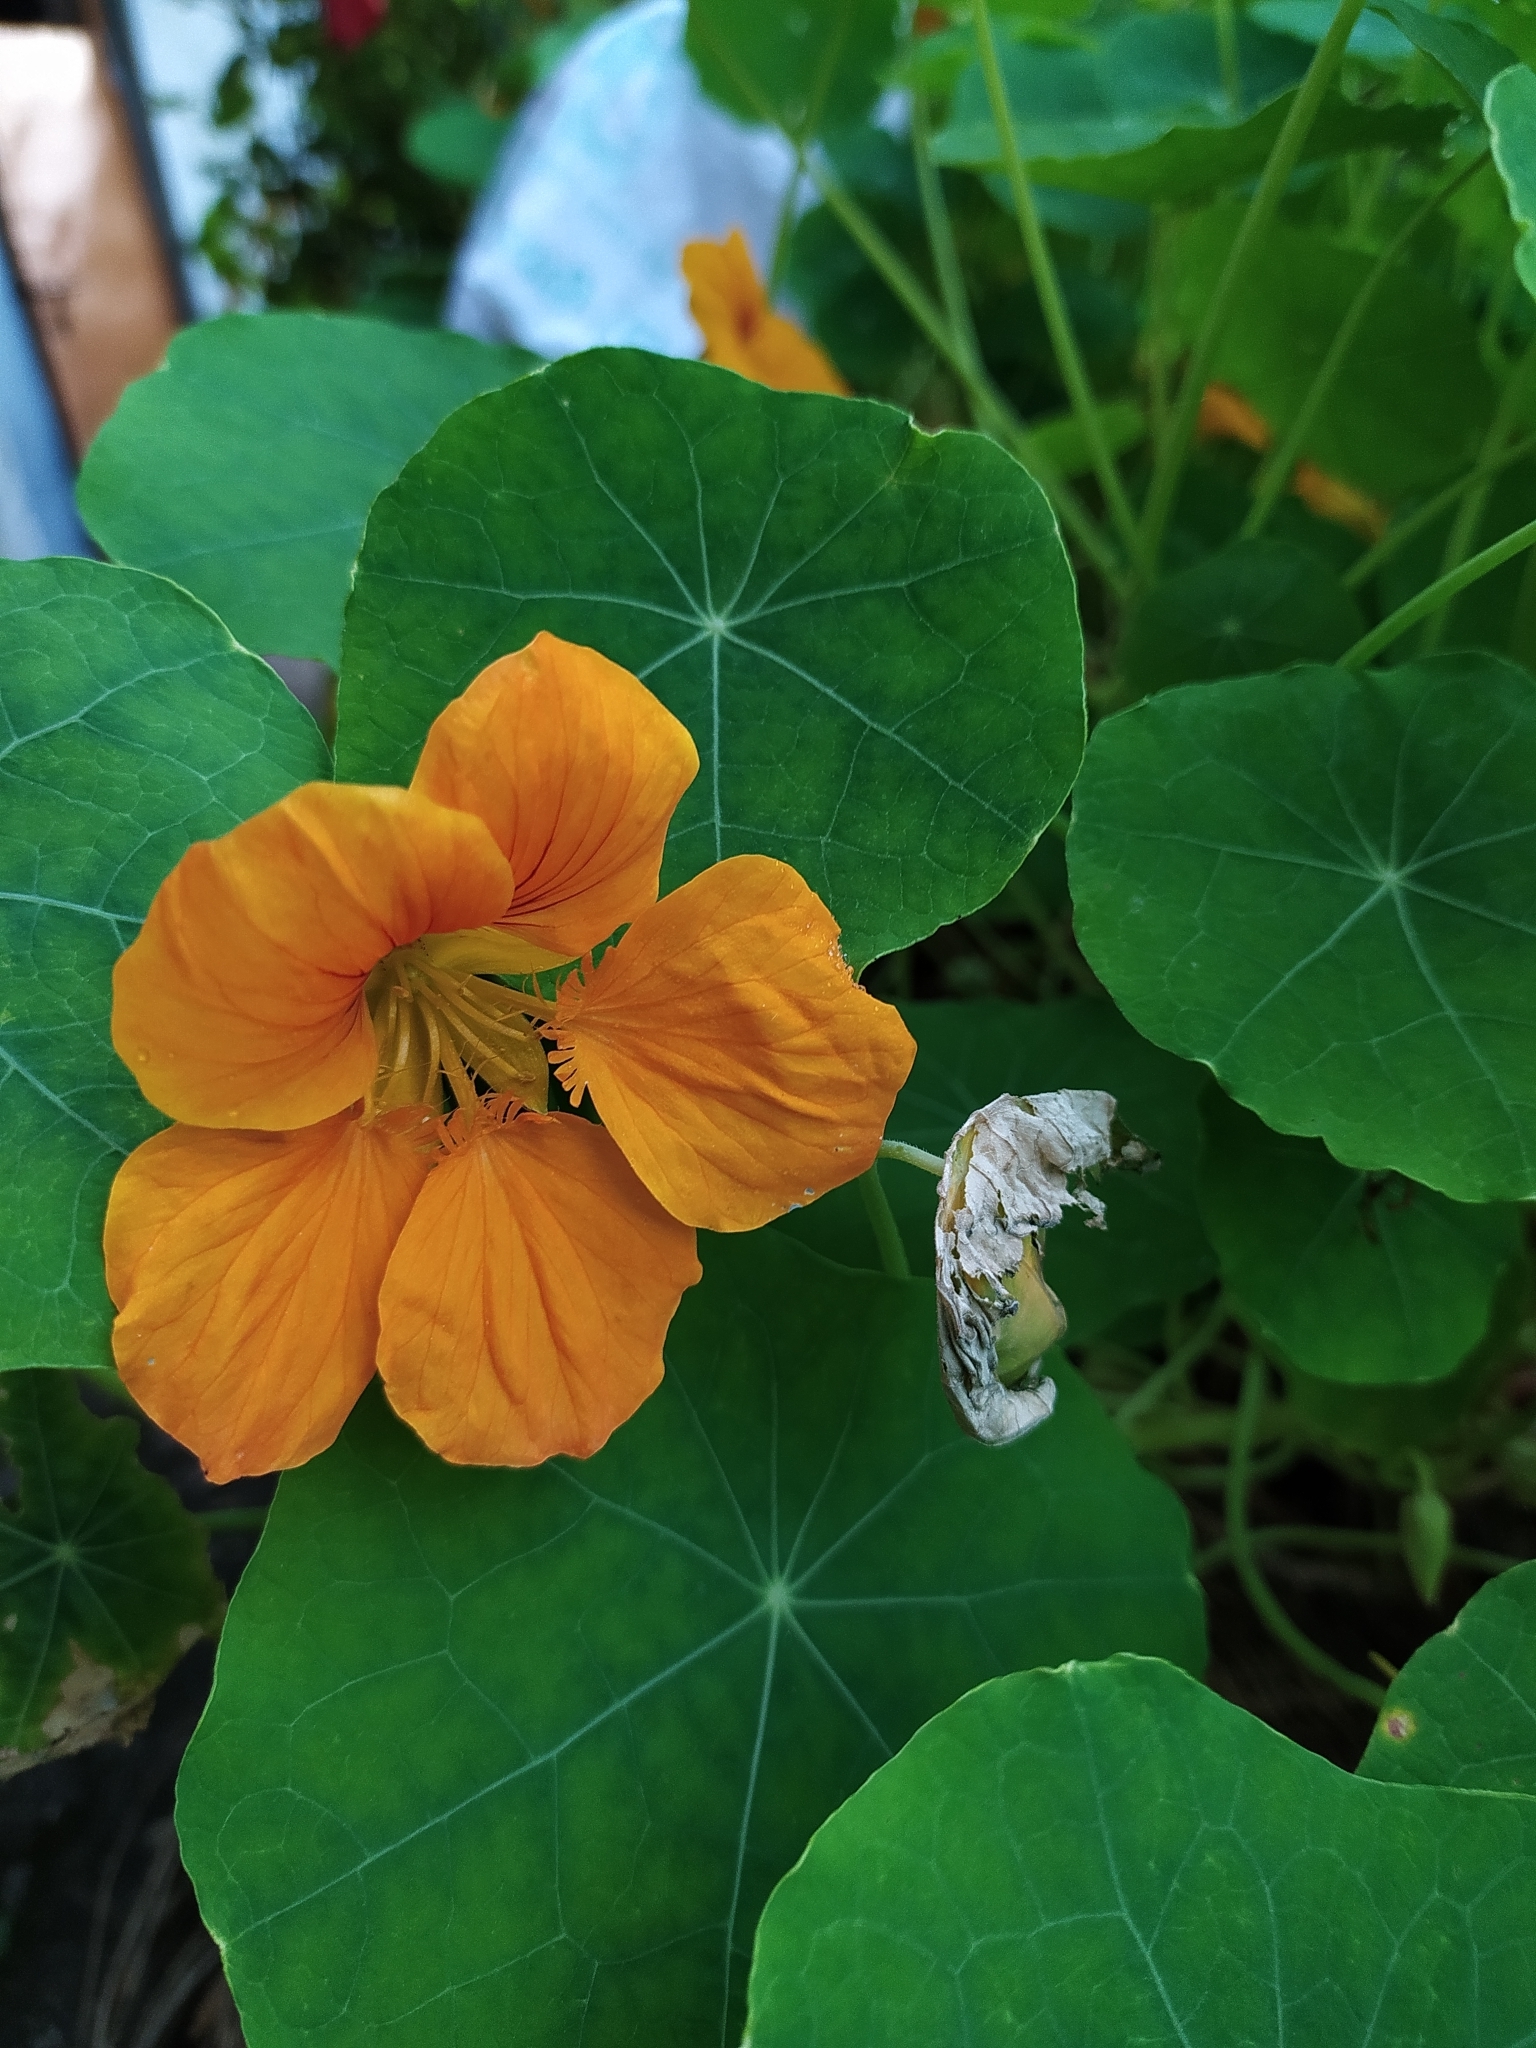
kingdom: Plantae
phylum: Tracheophyta
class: Magnoliopsida
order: Brassicales
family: Tropaeolaceae
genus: Tropaeolum
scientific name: Tropaeolum majus
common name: Nasturtium
